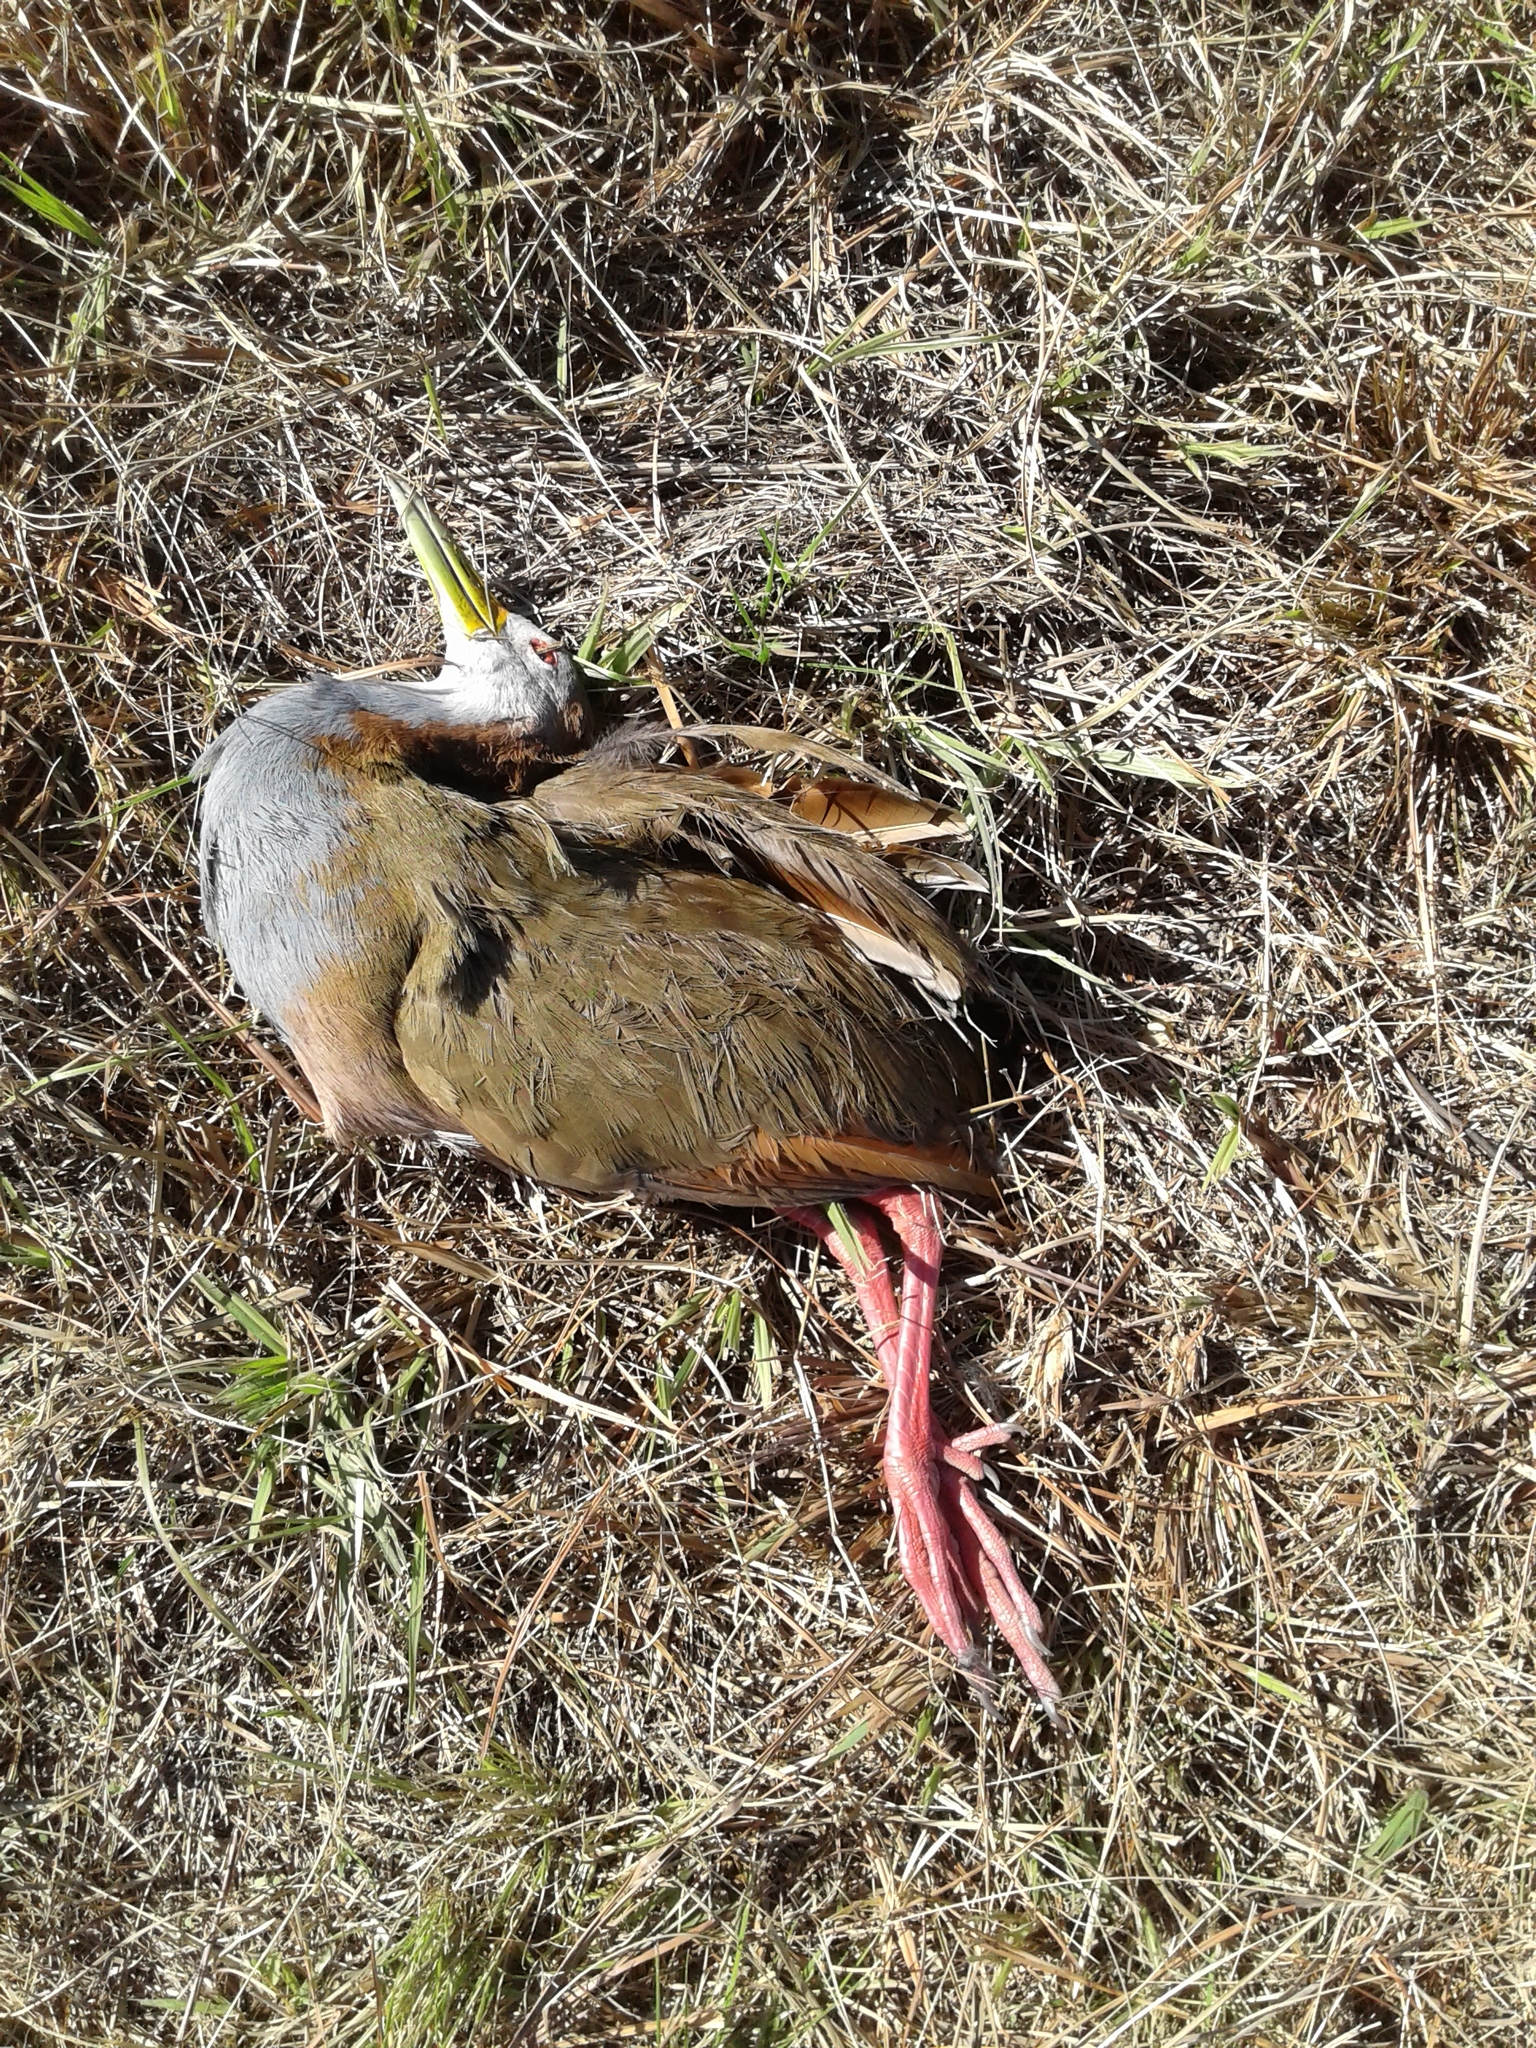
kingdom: Animalia
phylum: Chordata
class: Aves
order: Gruiformes
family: Rallidae
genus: Aramides
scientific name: Aramides ypecaha
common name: Giant wood rail
